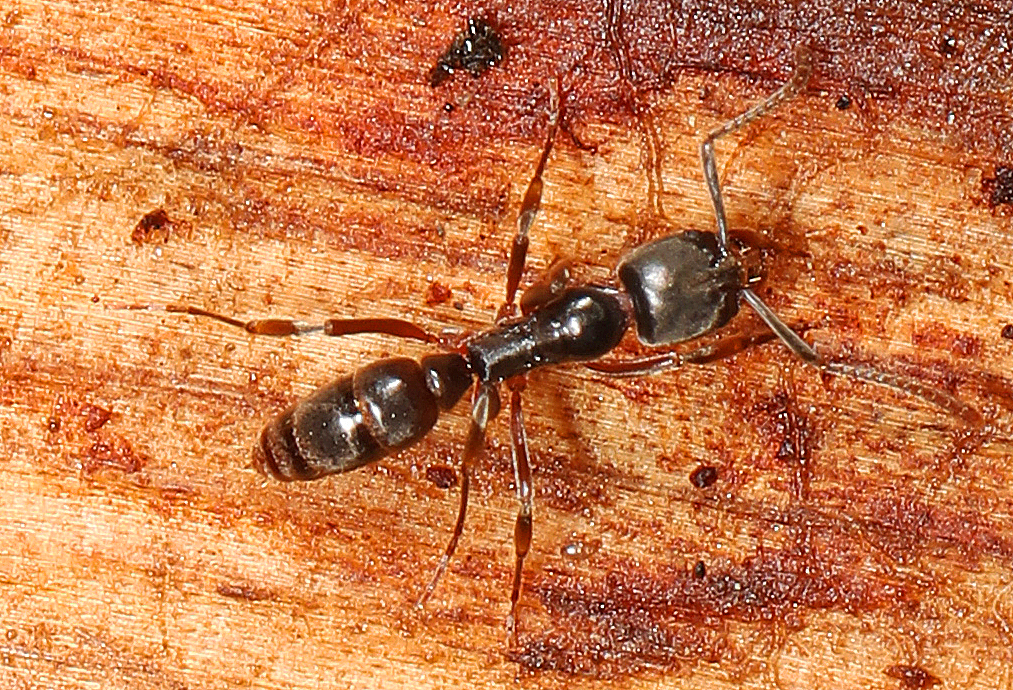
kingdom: Animalia
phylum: Arthropoda
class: Insecta
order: Hymenoptera
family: Formicidae
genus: Pachycondyla
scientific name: Pachycondyla chinensis
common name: Asian needle ant
